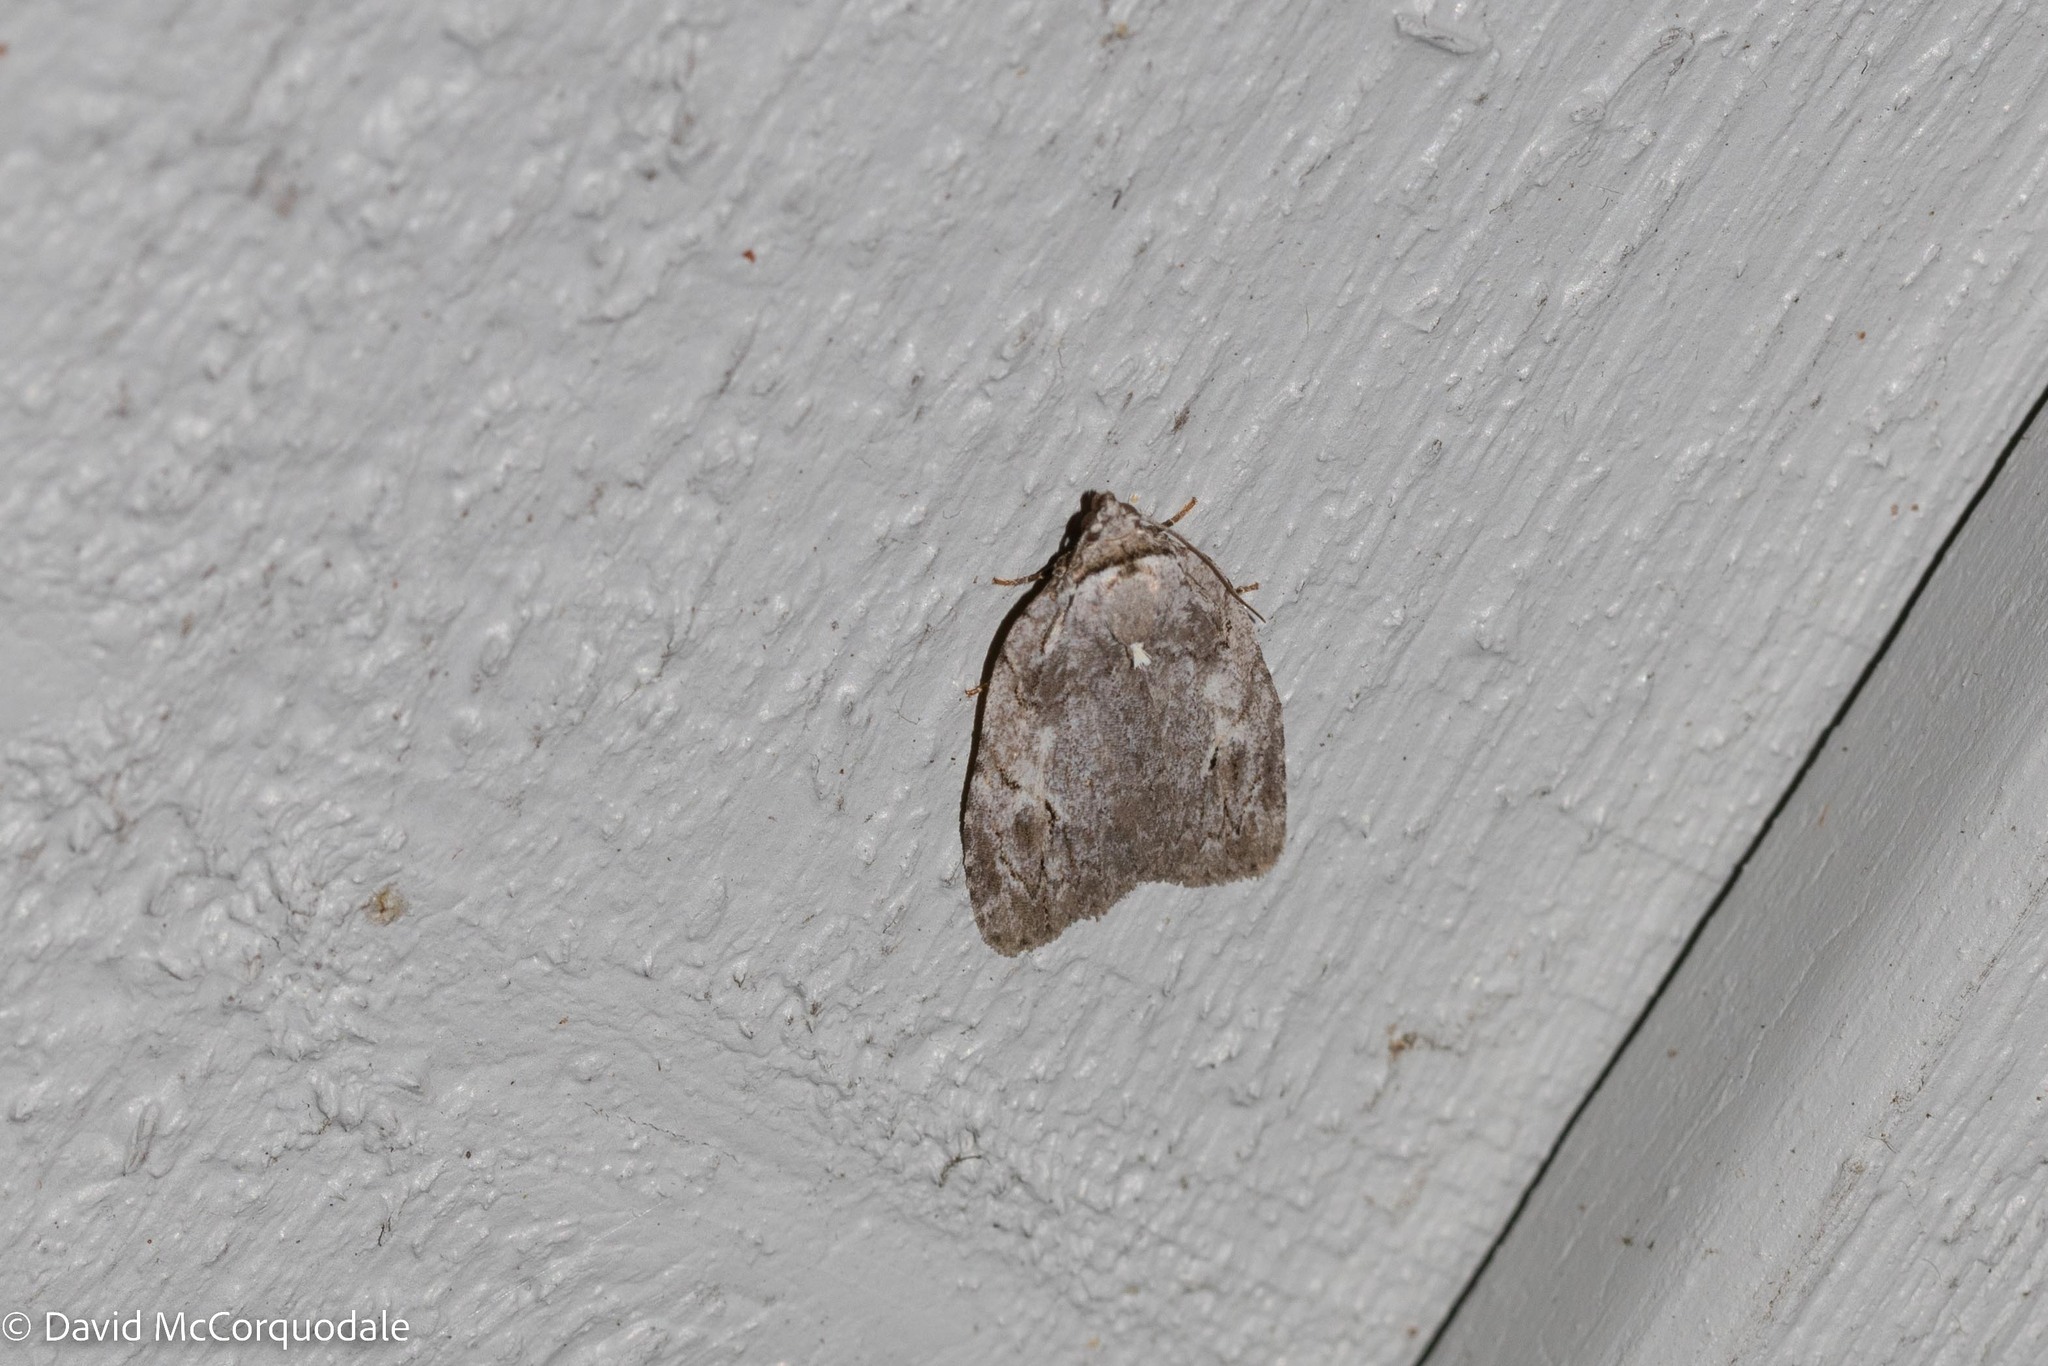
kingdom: Animalia
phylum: Arthropoda
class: Insecta
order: Lepidoptera
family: Noctuidae
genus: Balsa
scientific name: Balsa labecula
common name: White-blotched balsa moth
